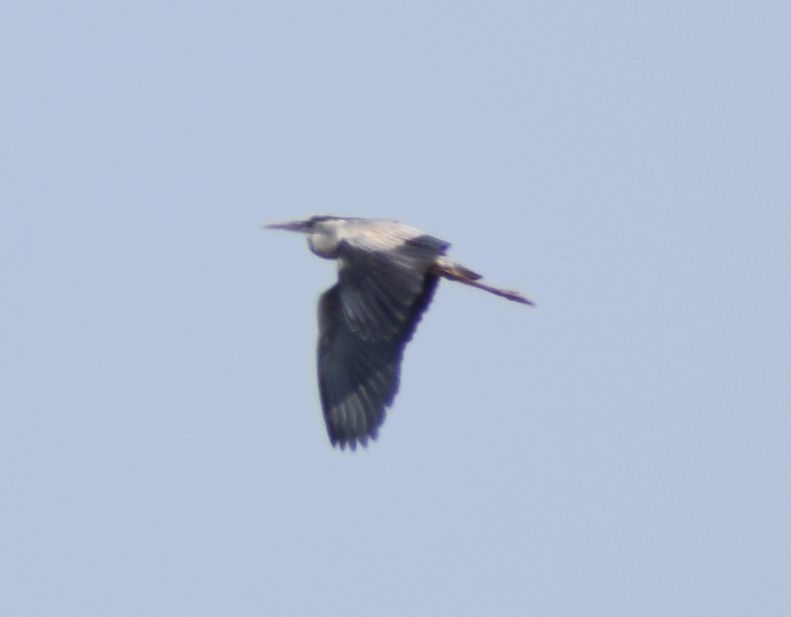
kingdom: Animalia
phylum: Chordata
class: Aves
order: Pelecaniformes
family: Ardeidae
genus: Ardea
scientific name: Ardea cinerea
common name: Grey heron
